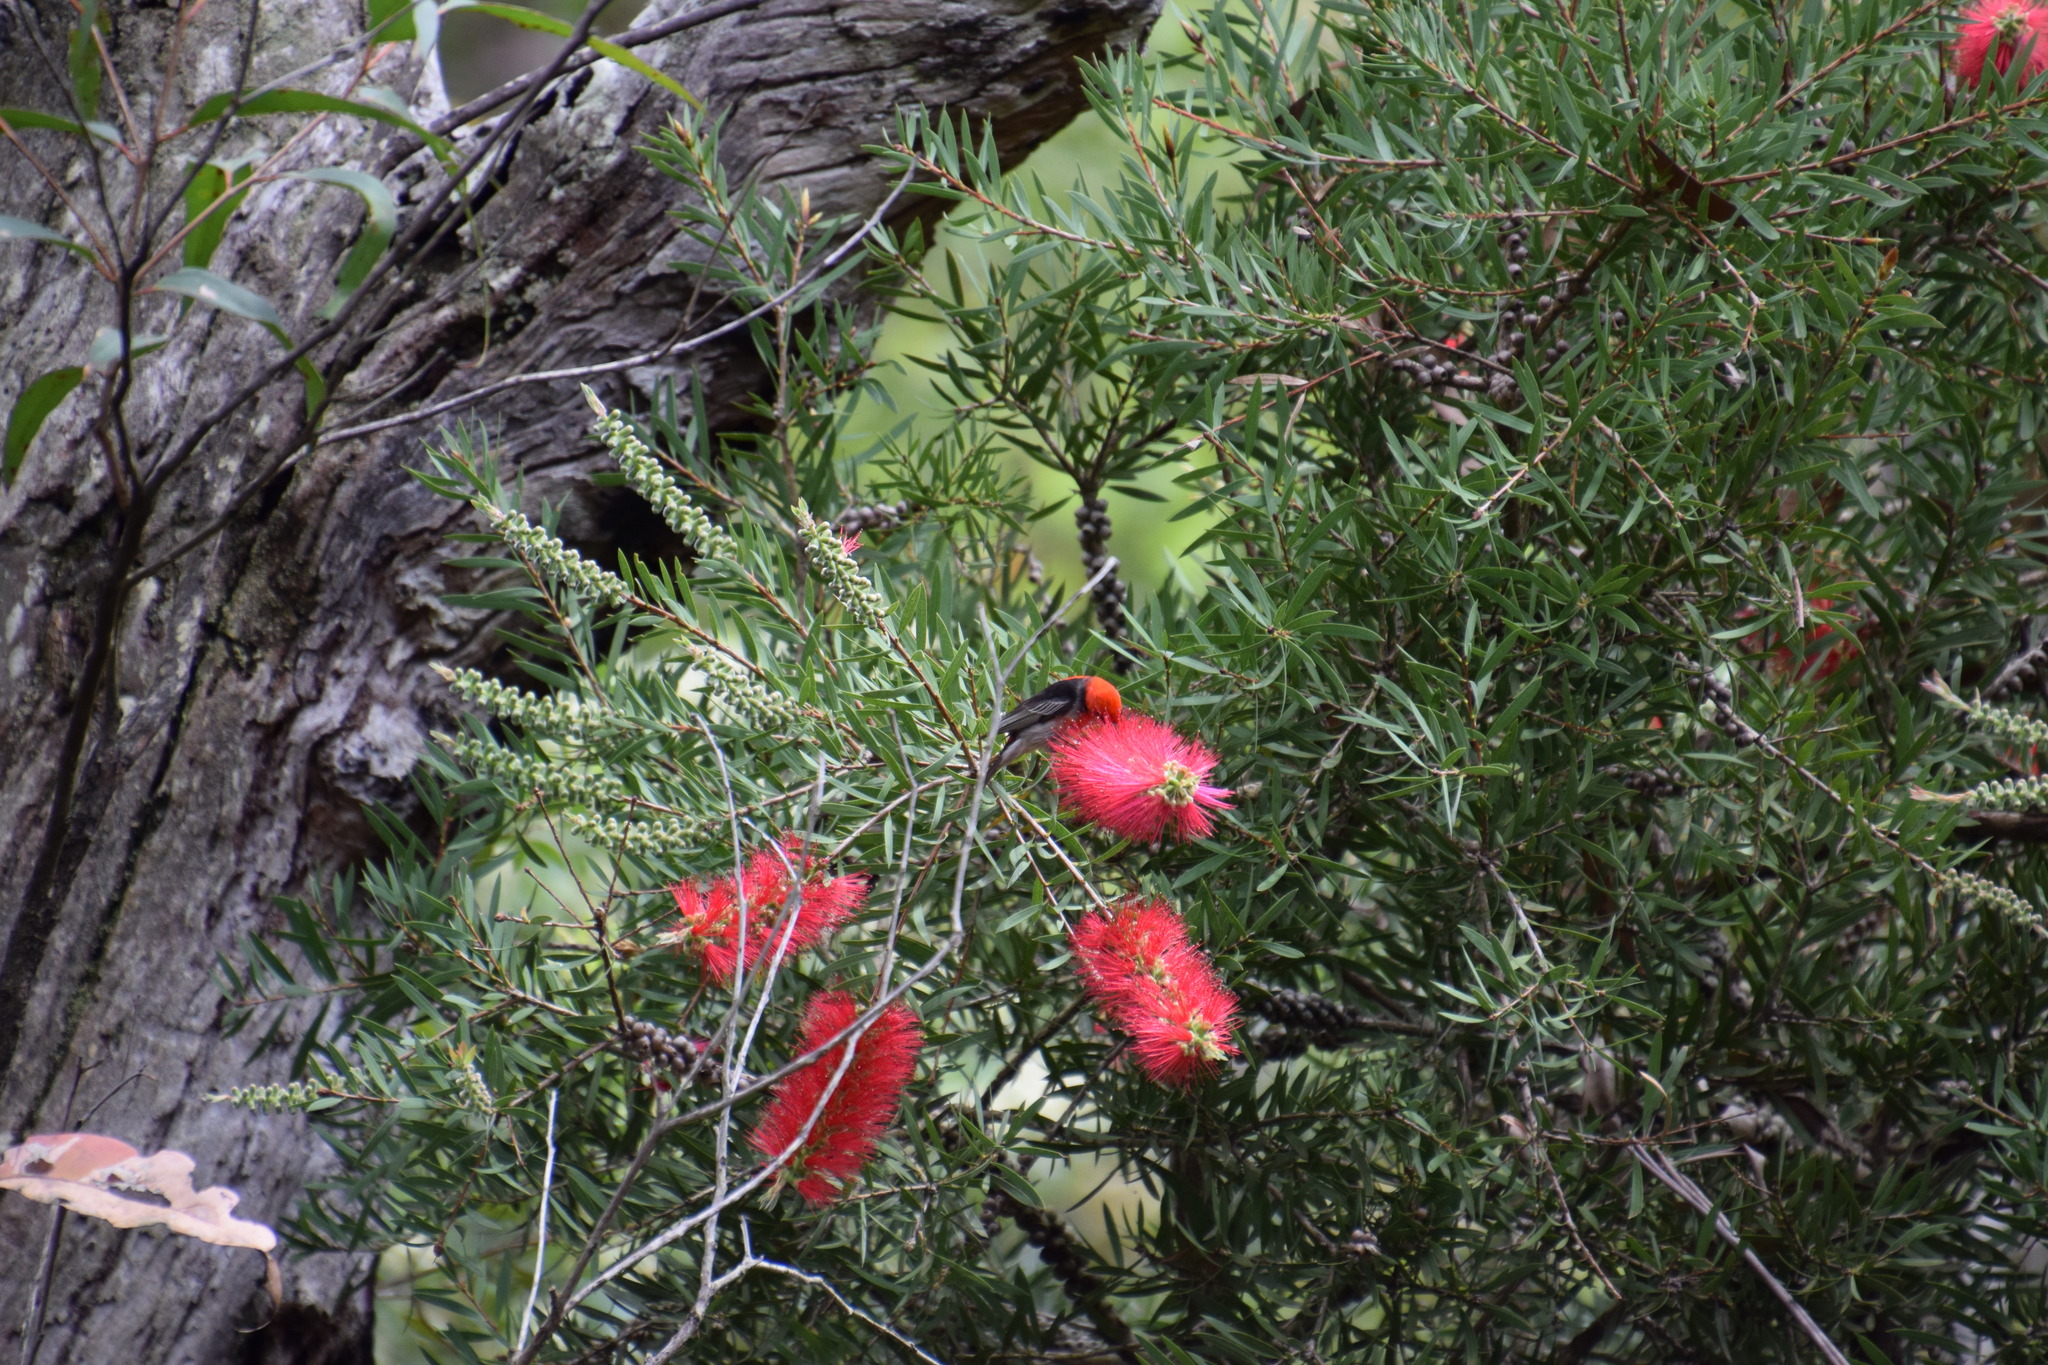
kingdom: Animalia
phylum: Chordata
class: Aves
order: Passeriformes
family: Meliphagidae
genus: Myzomela
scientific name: Myzomela sanguinolenta
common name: Scarlet myzomela
